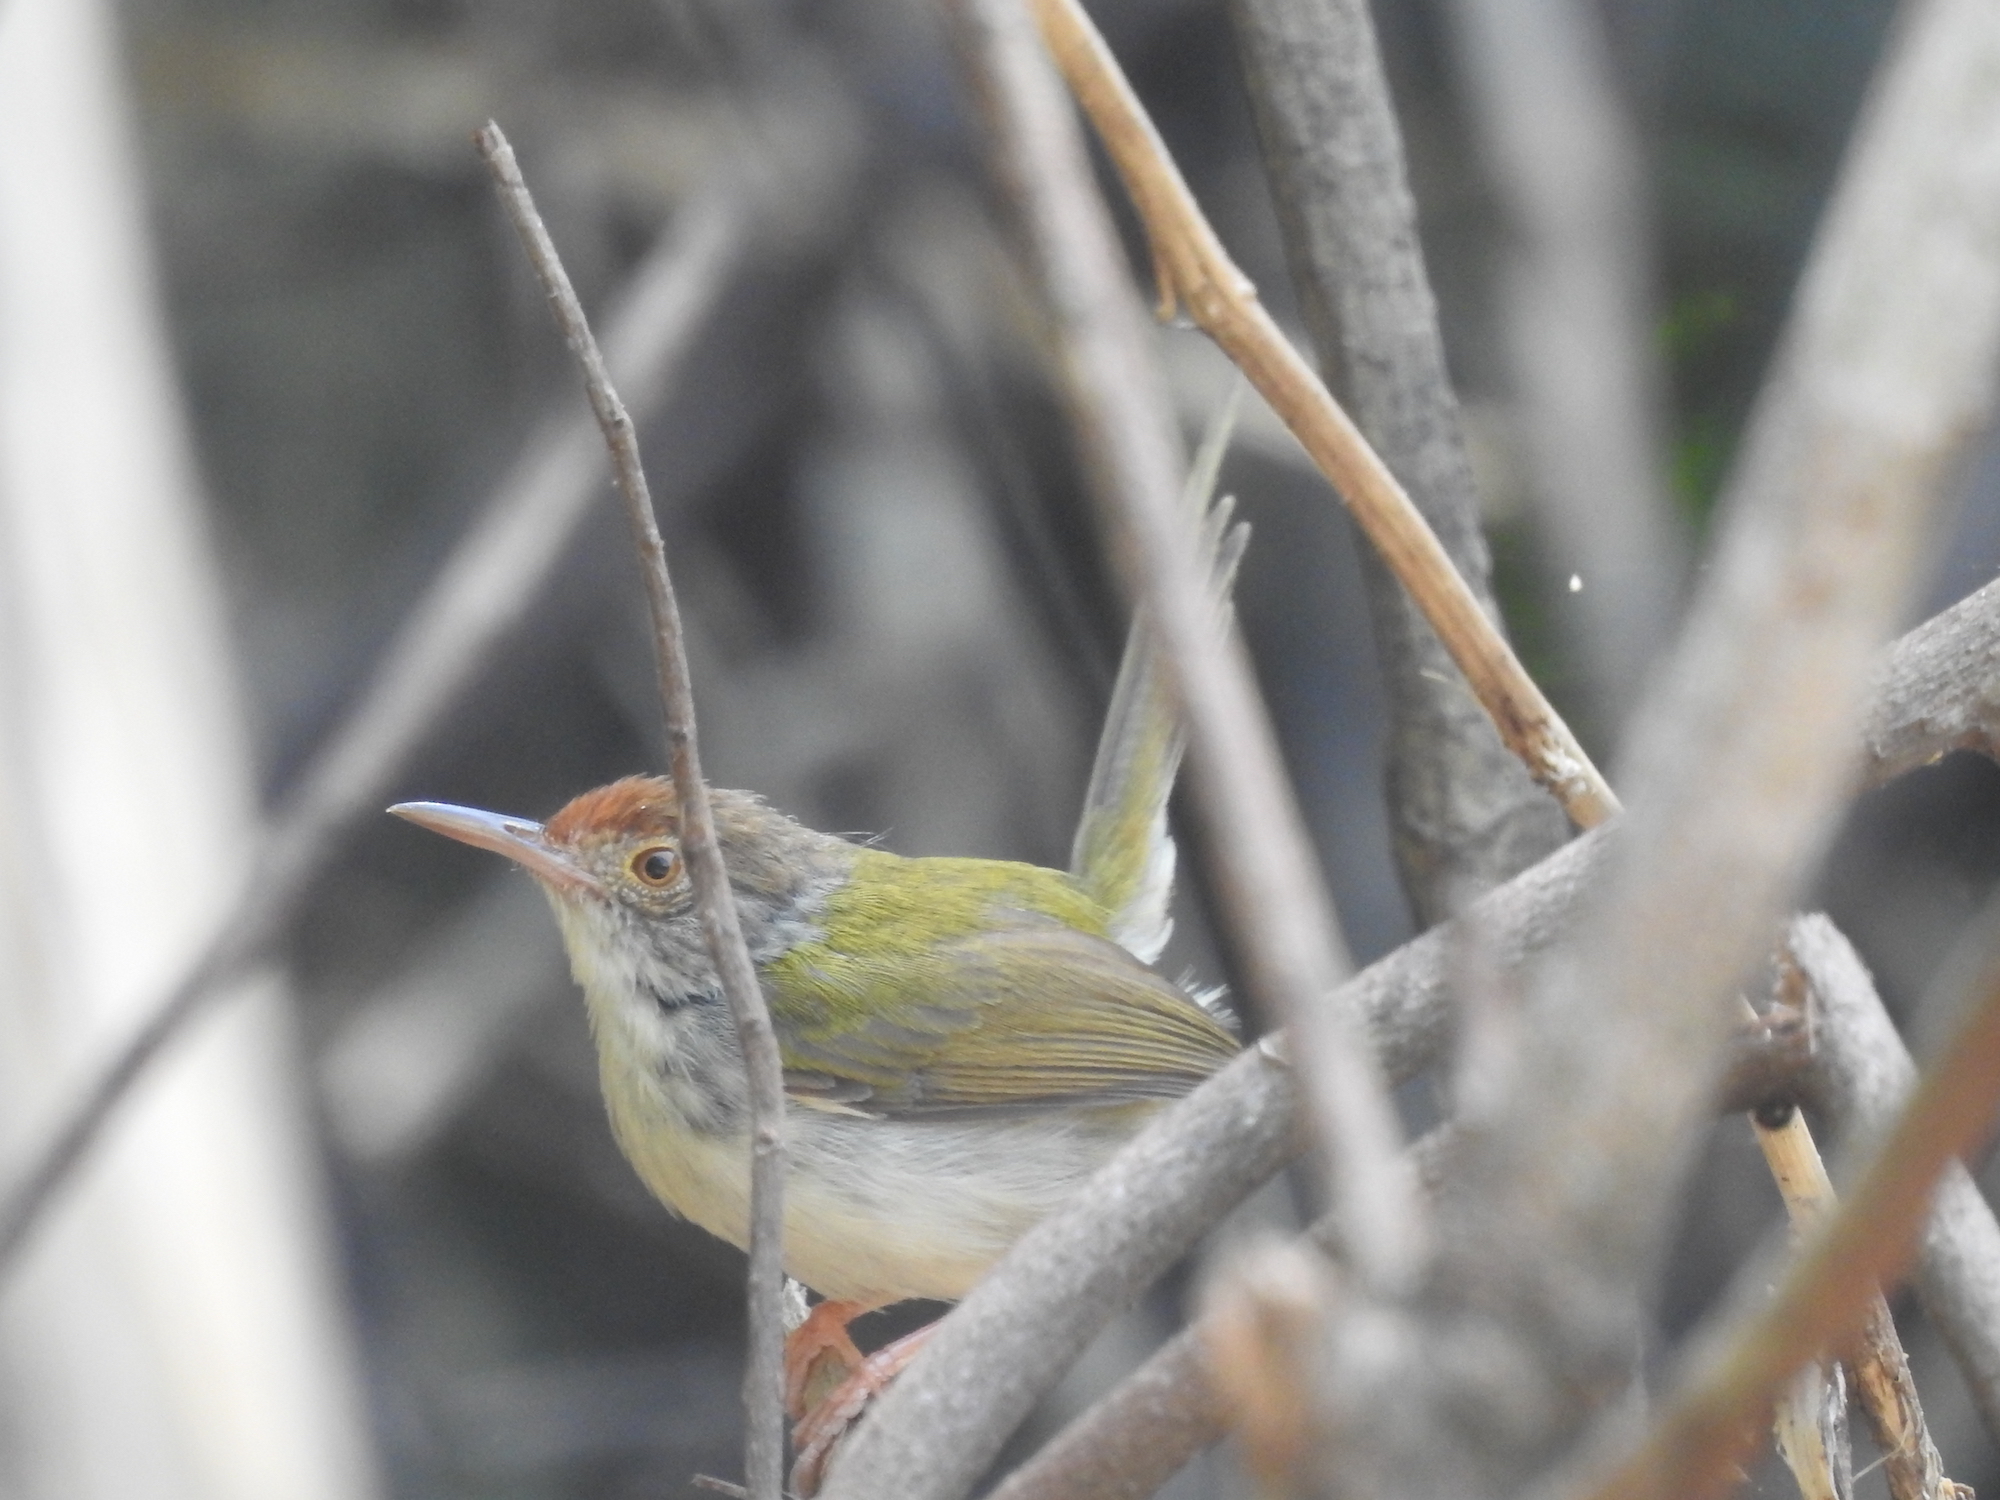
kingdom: Animalia
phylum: Chordata
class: Aves
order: Passeriformes
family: Cisticolidae
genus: Orthotomus
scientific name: Orthotomus sutorius
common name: Common tailorbird
